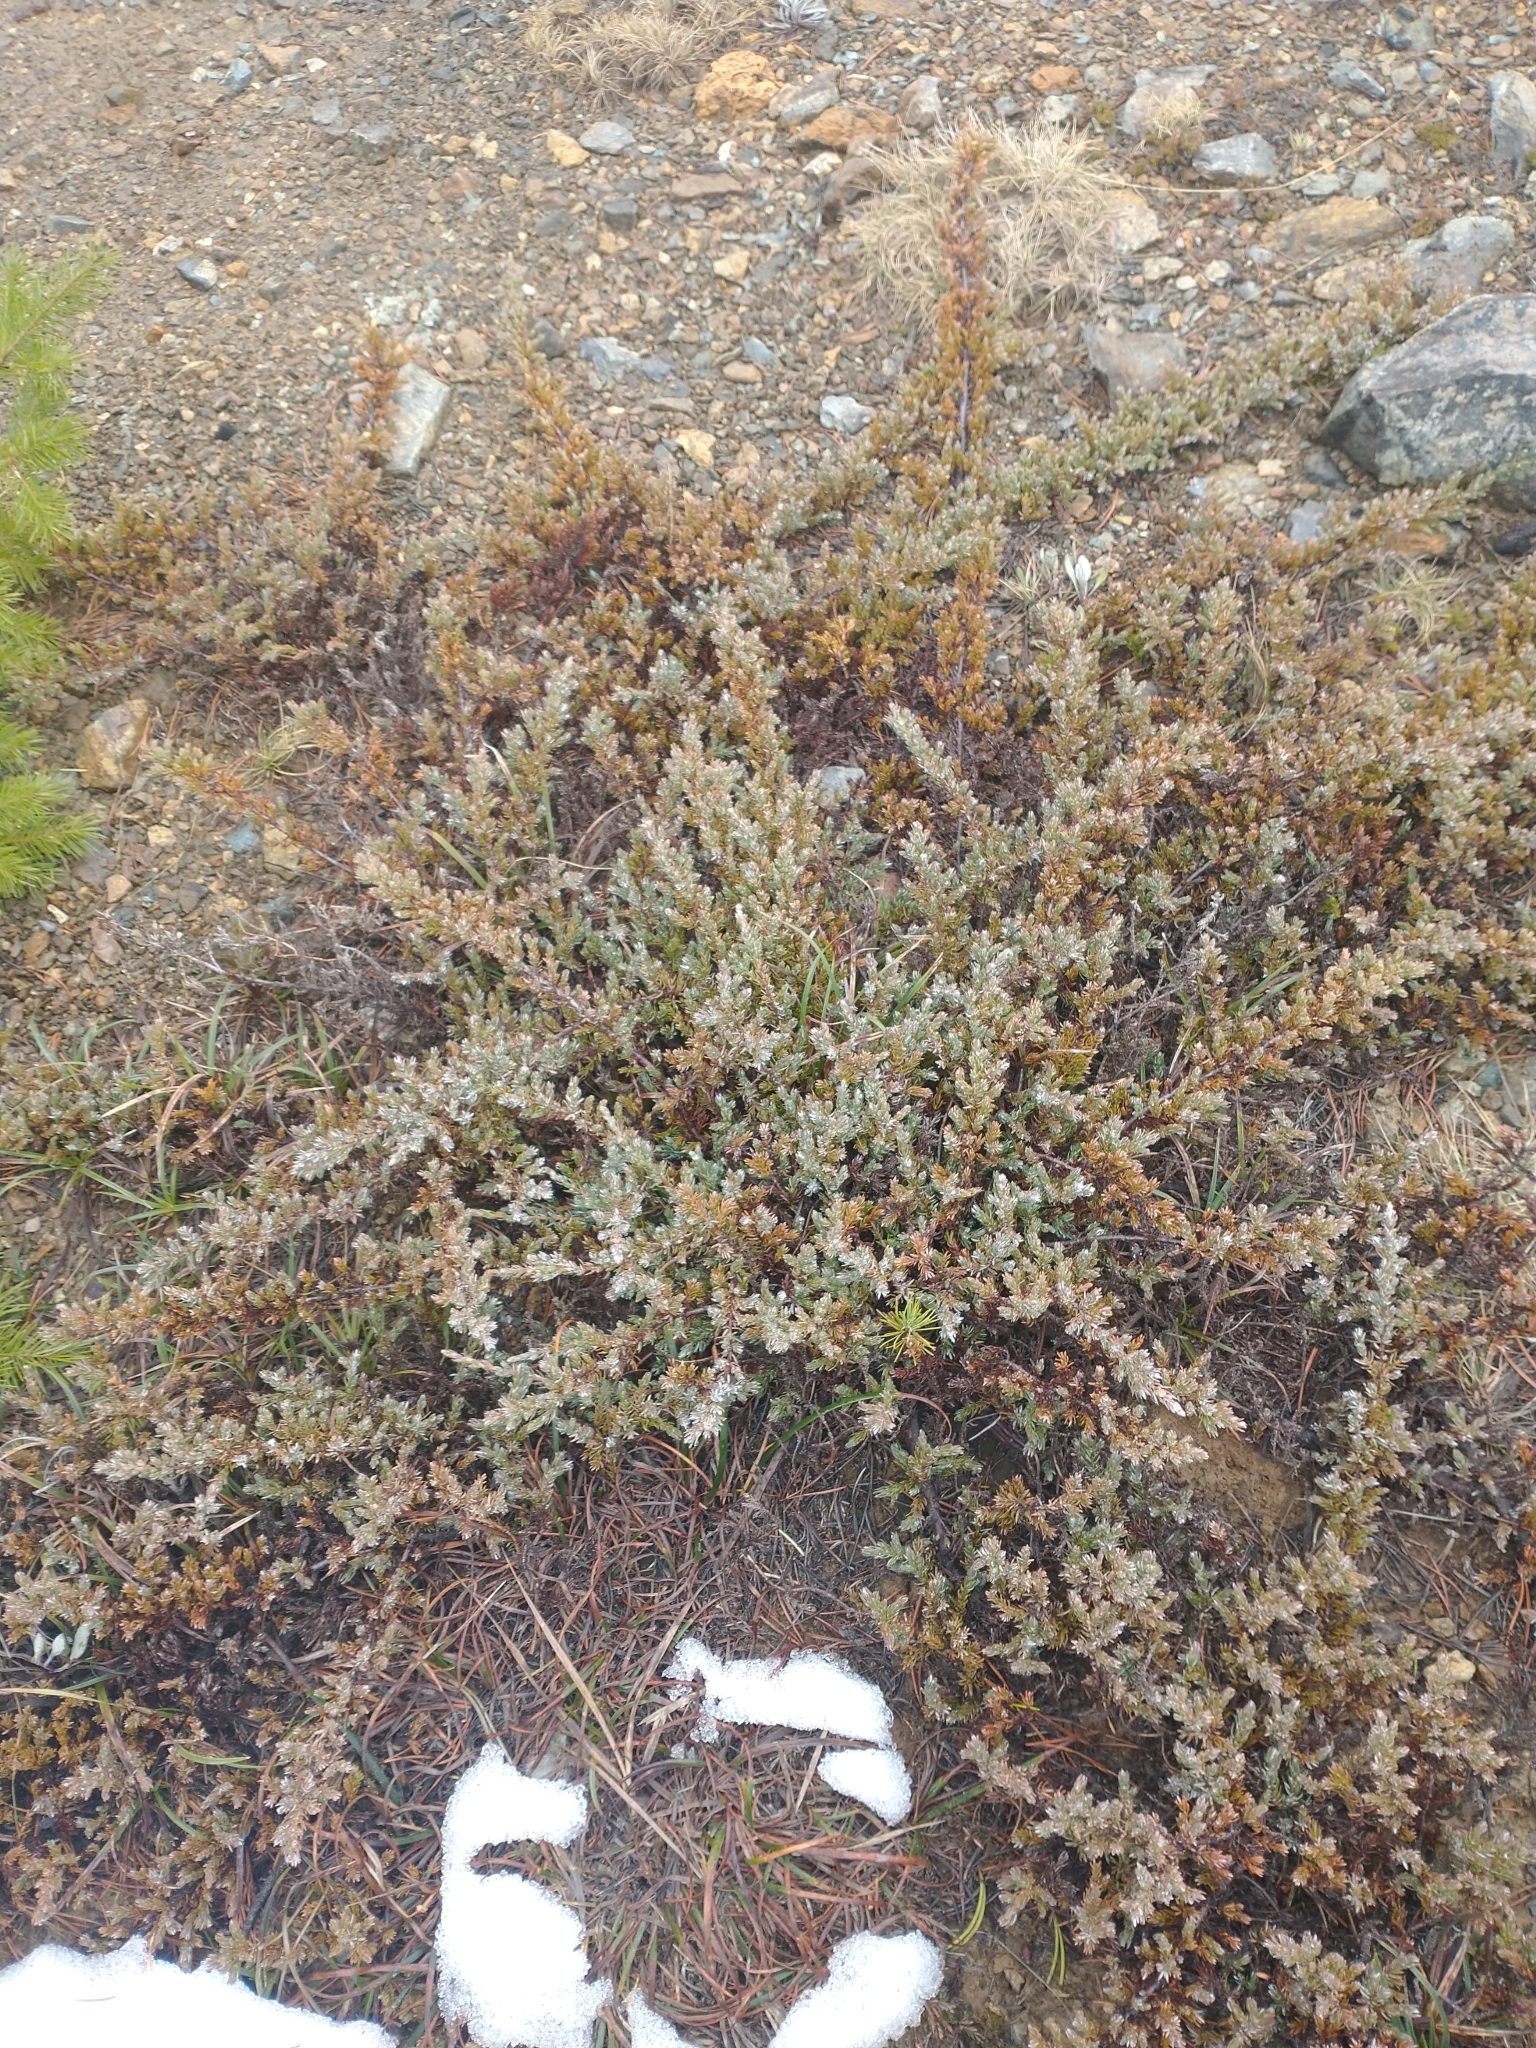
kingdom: Plantae
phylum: Tracheophyta
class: Pinopsida
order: Pinales
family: Cupressaceae
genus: Juniperus
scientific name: Juniperus communis
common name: Common juniper
